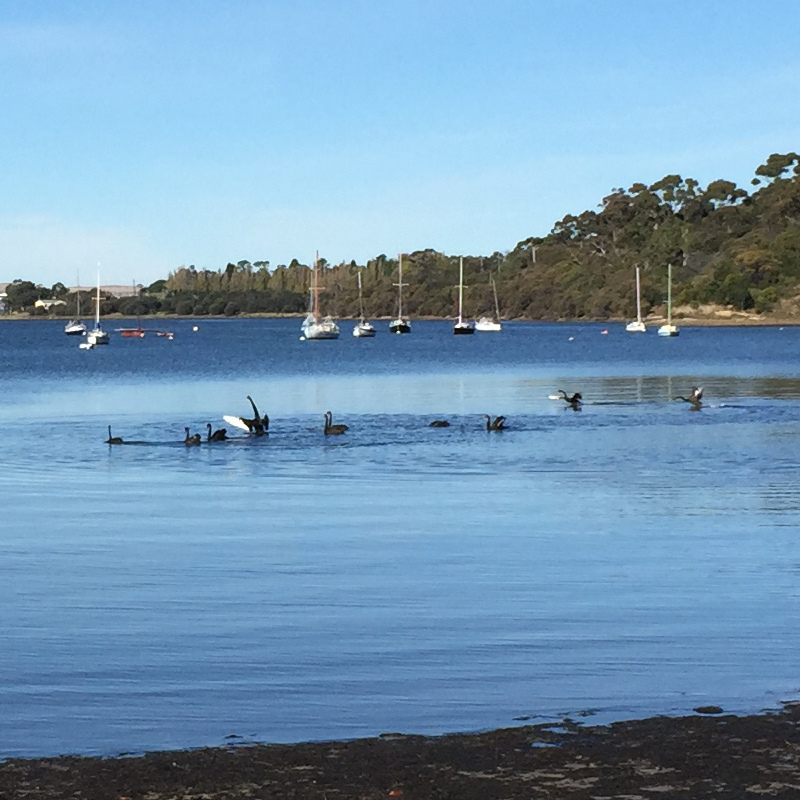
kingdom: Animalia
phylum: Chordata
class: Aves
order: Anseriformes
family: Anatidae
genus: Cygnus
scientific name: Cygnus atratus
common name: Black swan
